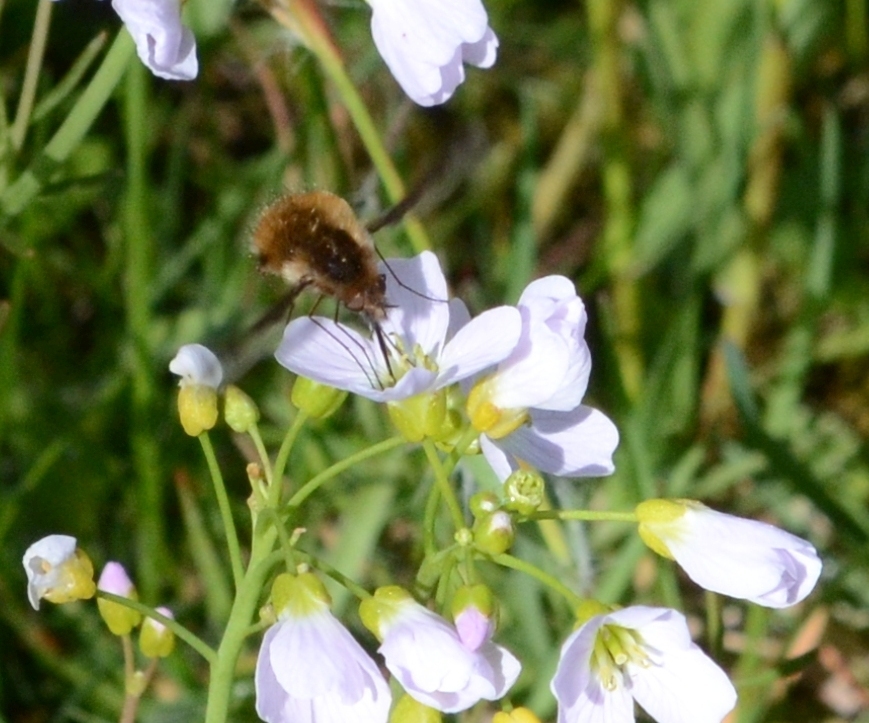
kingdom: Animalia
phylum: Arthropoda
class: Insecta
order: Diptera
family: Bombyliidae
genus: Bombylius
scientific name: Bombylius major
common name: Bee fly
